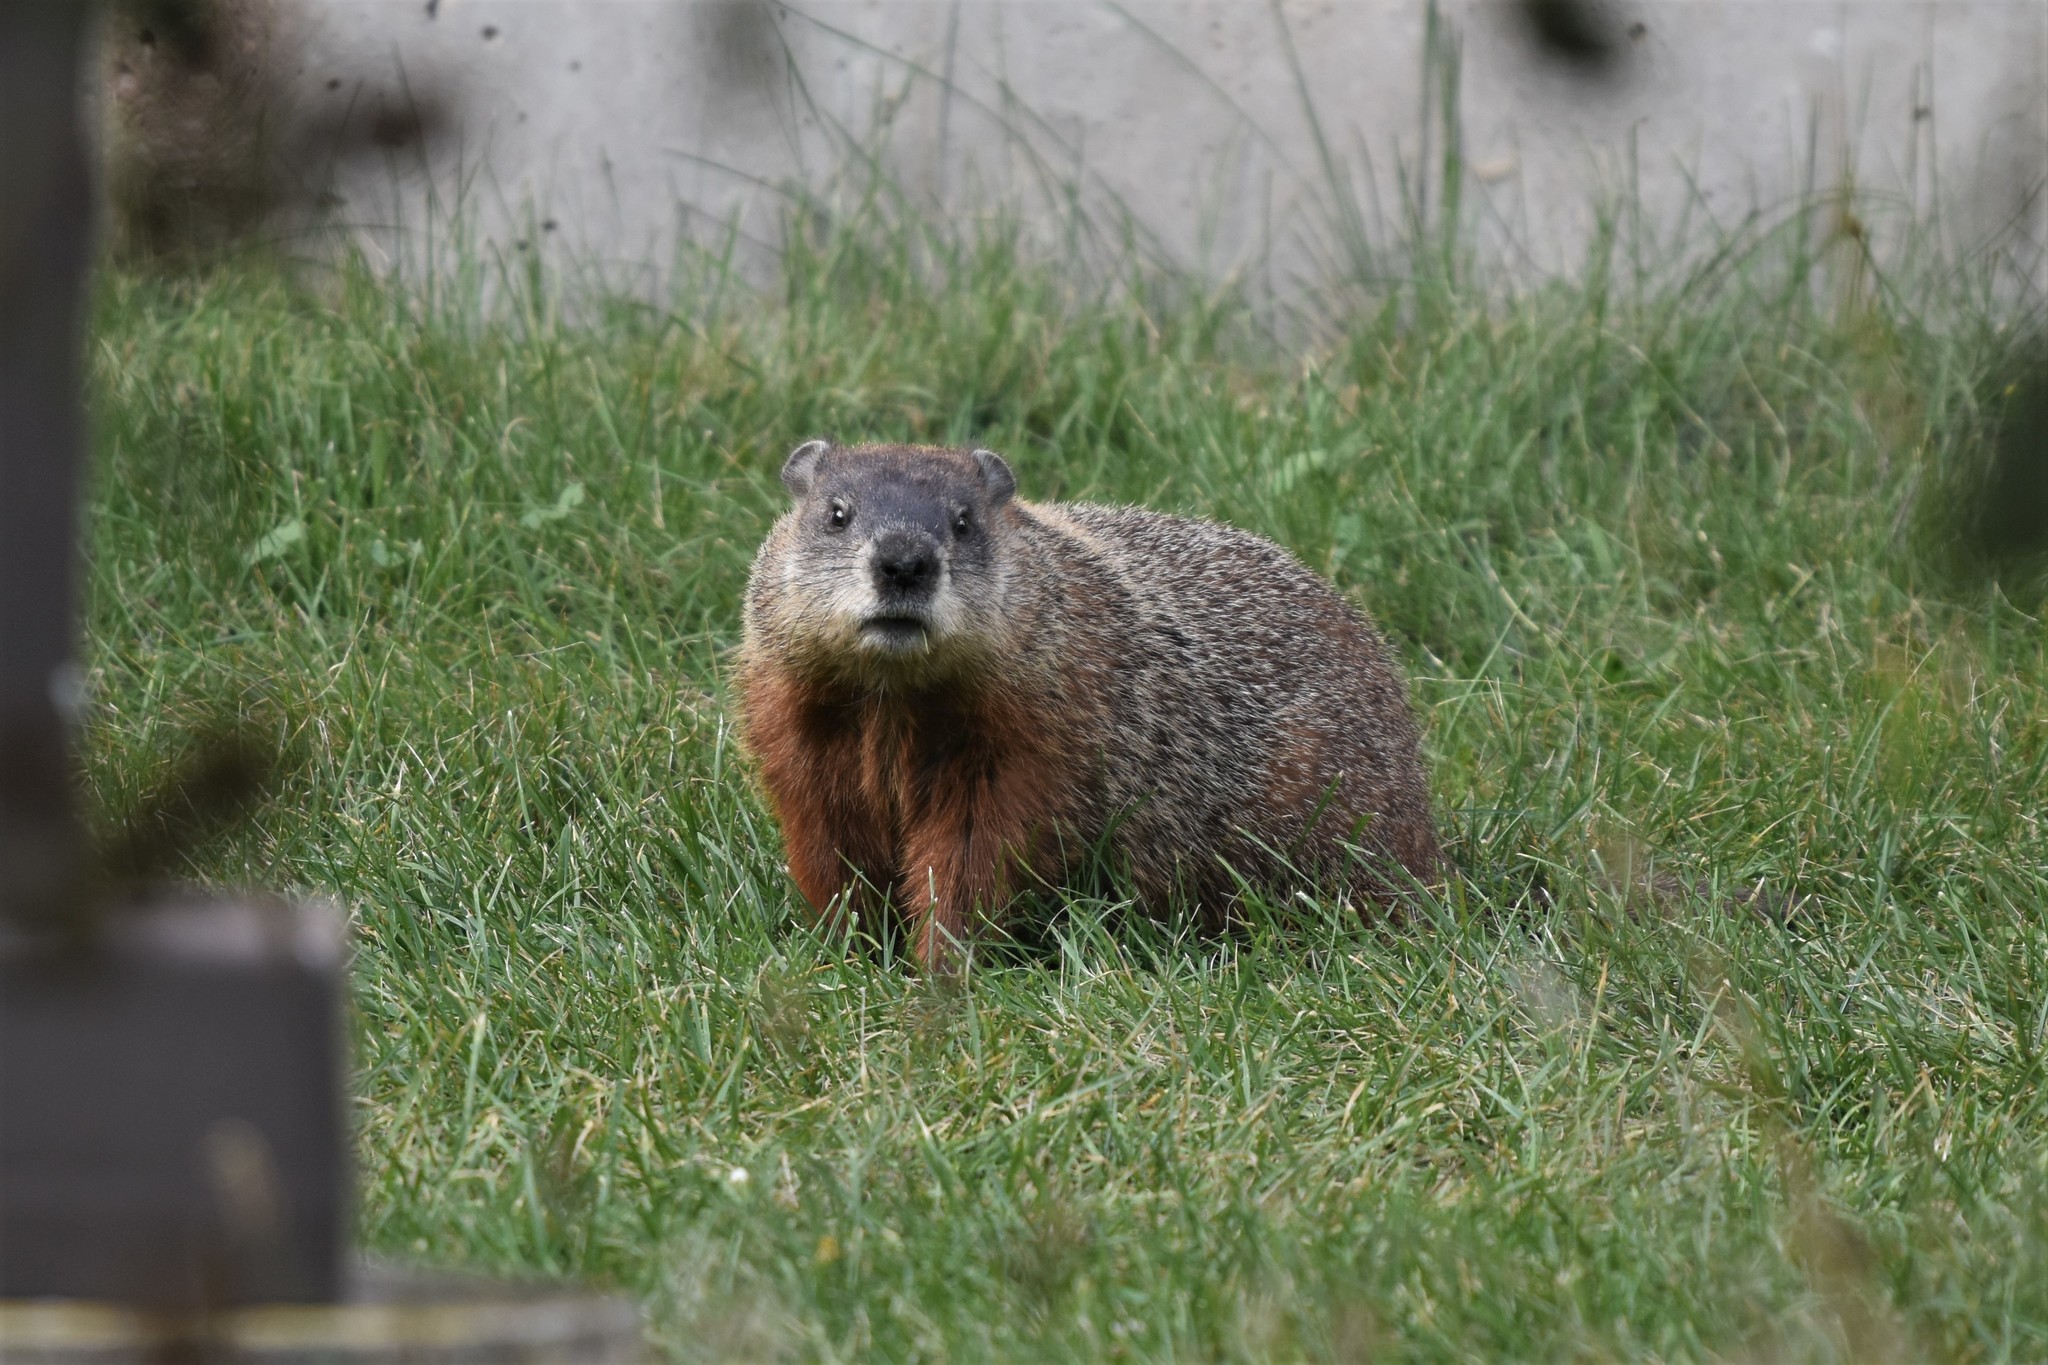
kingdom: Animalia
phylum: Chordata
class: Mammalia
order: Rodentia
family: Sciuridae
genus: Marmota
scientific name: Marmota monax
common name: Groundhog
